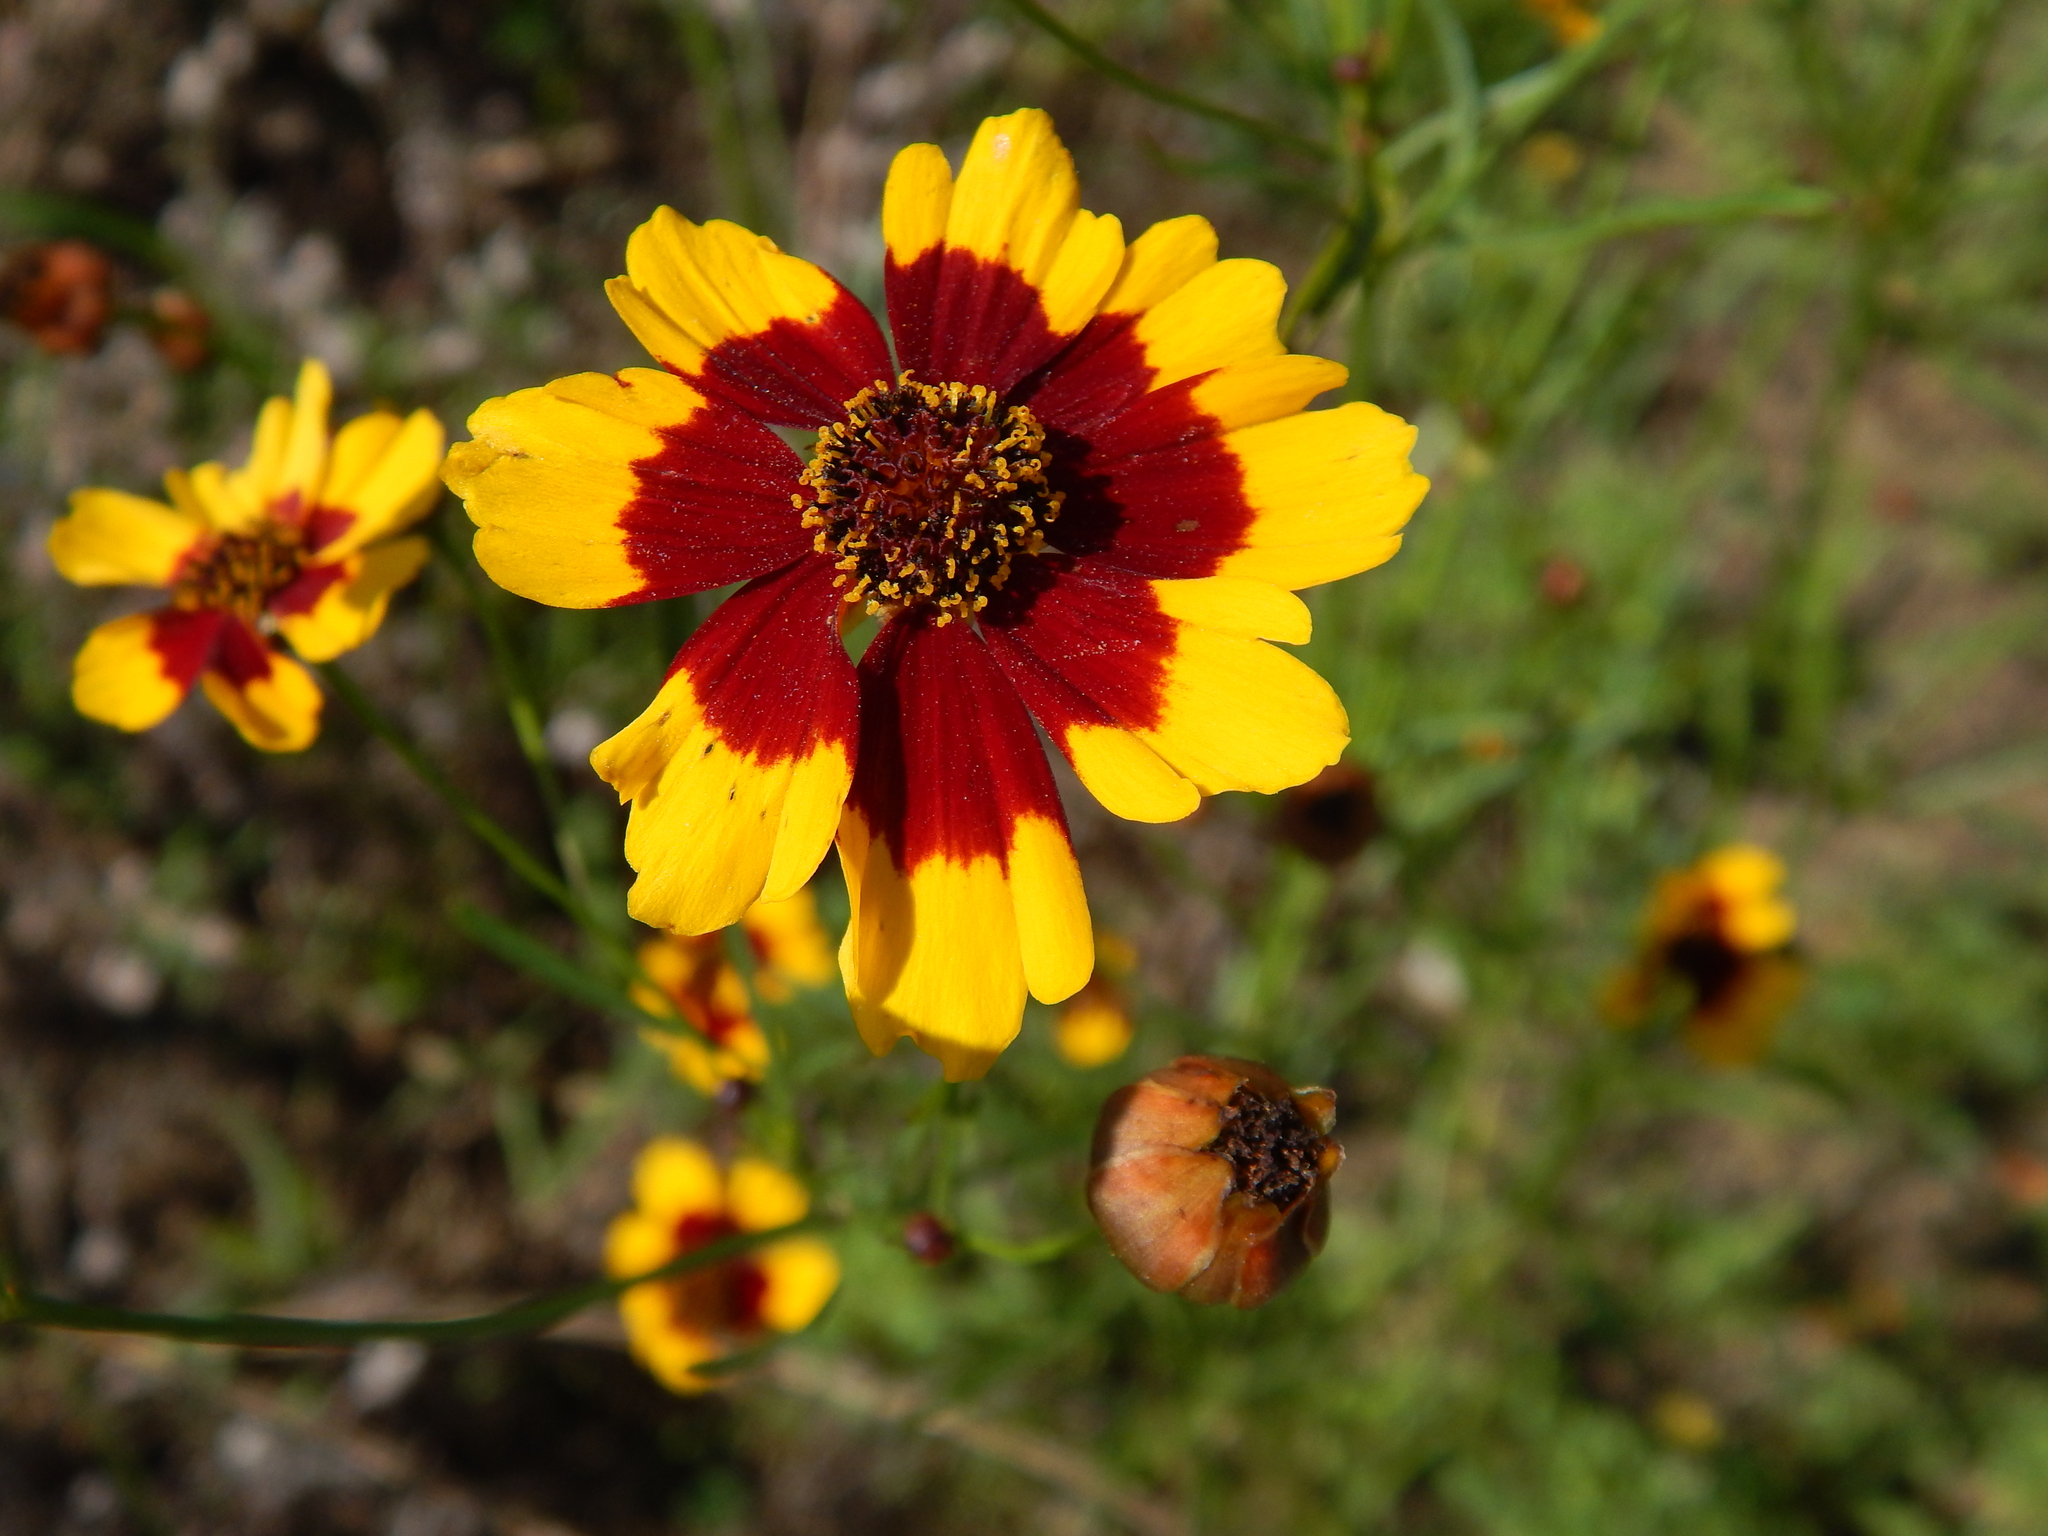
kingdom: Plantae
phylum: Tracheophyta
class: Magnoliopsida
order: Asterales
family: Asteraceae
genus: Coreopsis
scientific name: Coreopsis tinctoria
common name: Garden tickseed
